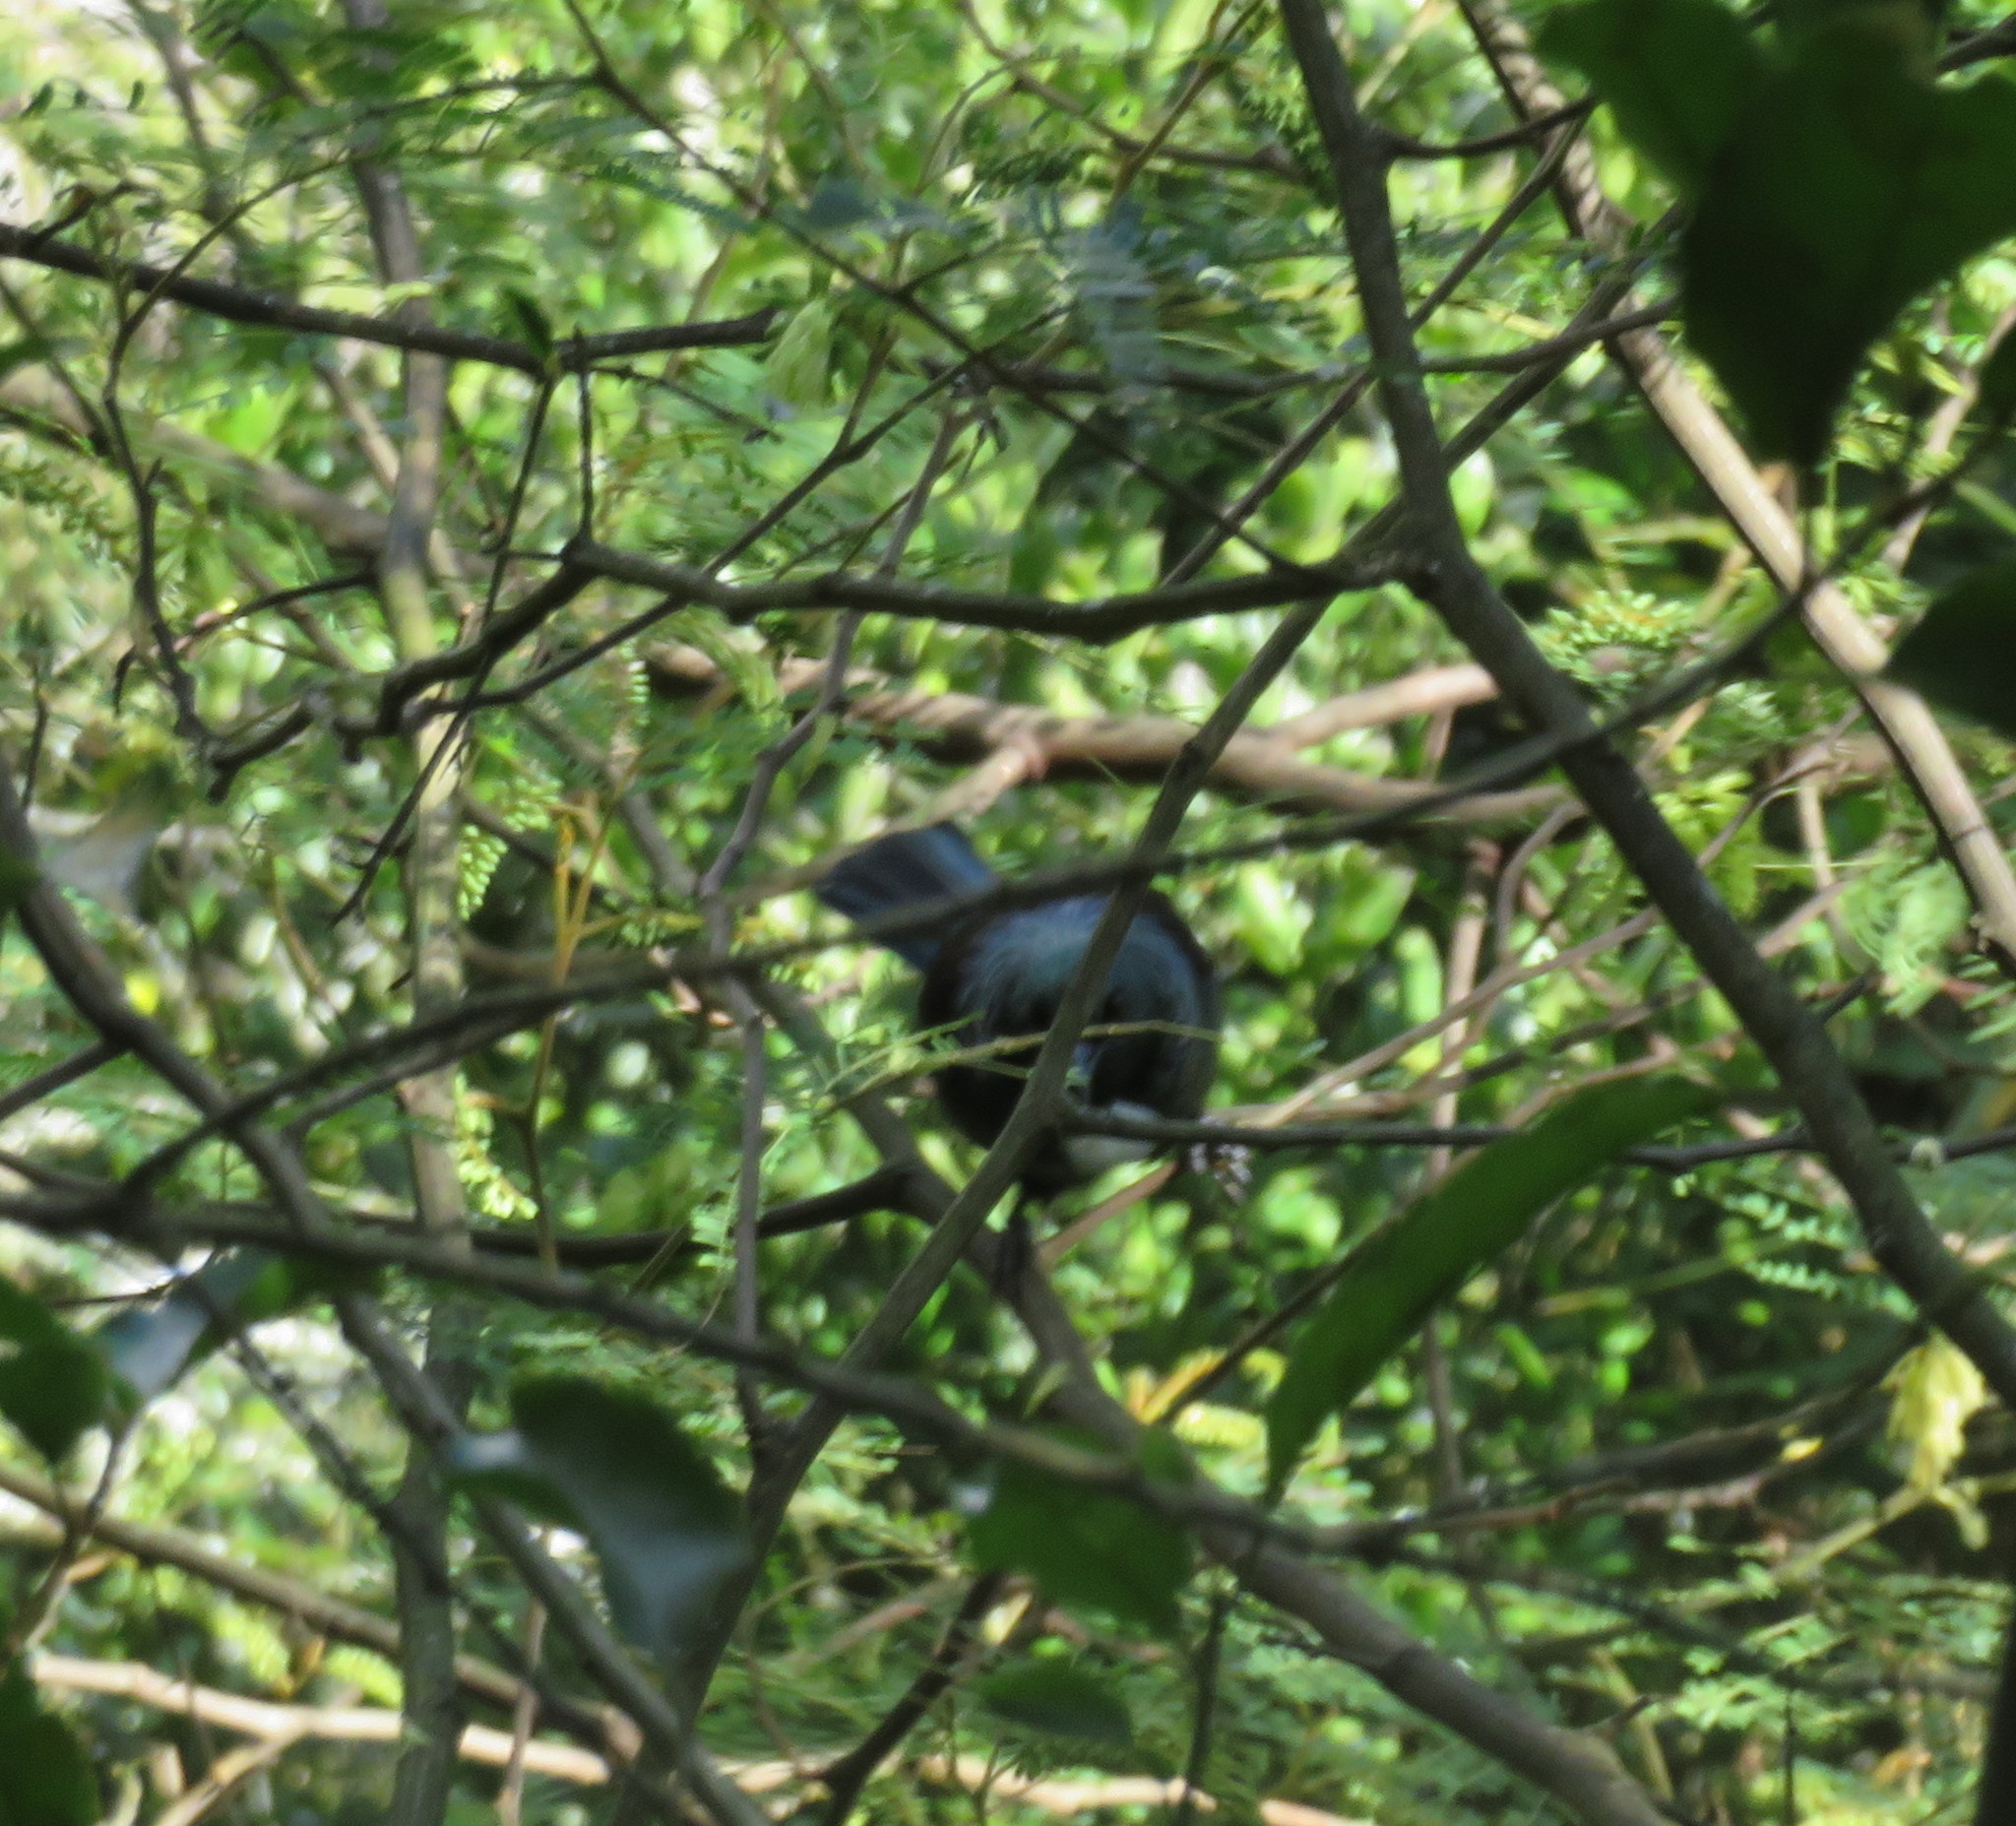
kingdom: Animalia
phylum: Chordata
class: Aves
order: Passeriformes
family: Meliphagidae
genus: Prosthemadera
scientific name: Prosthemadera novaeseelandiae
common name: Tui
